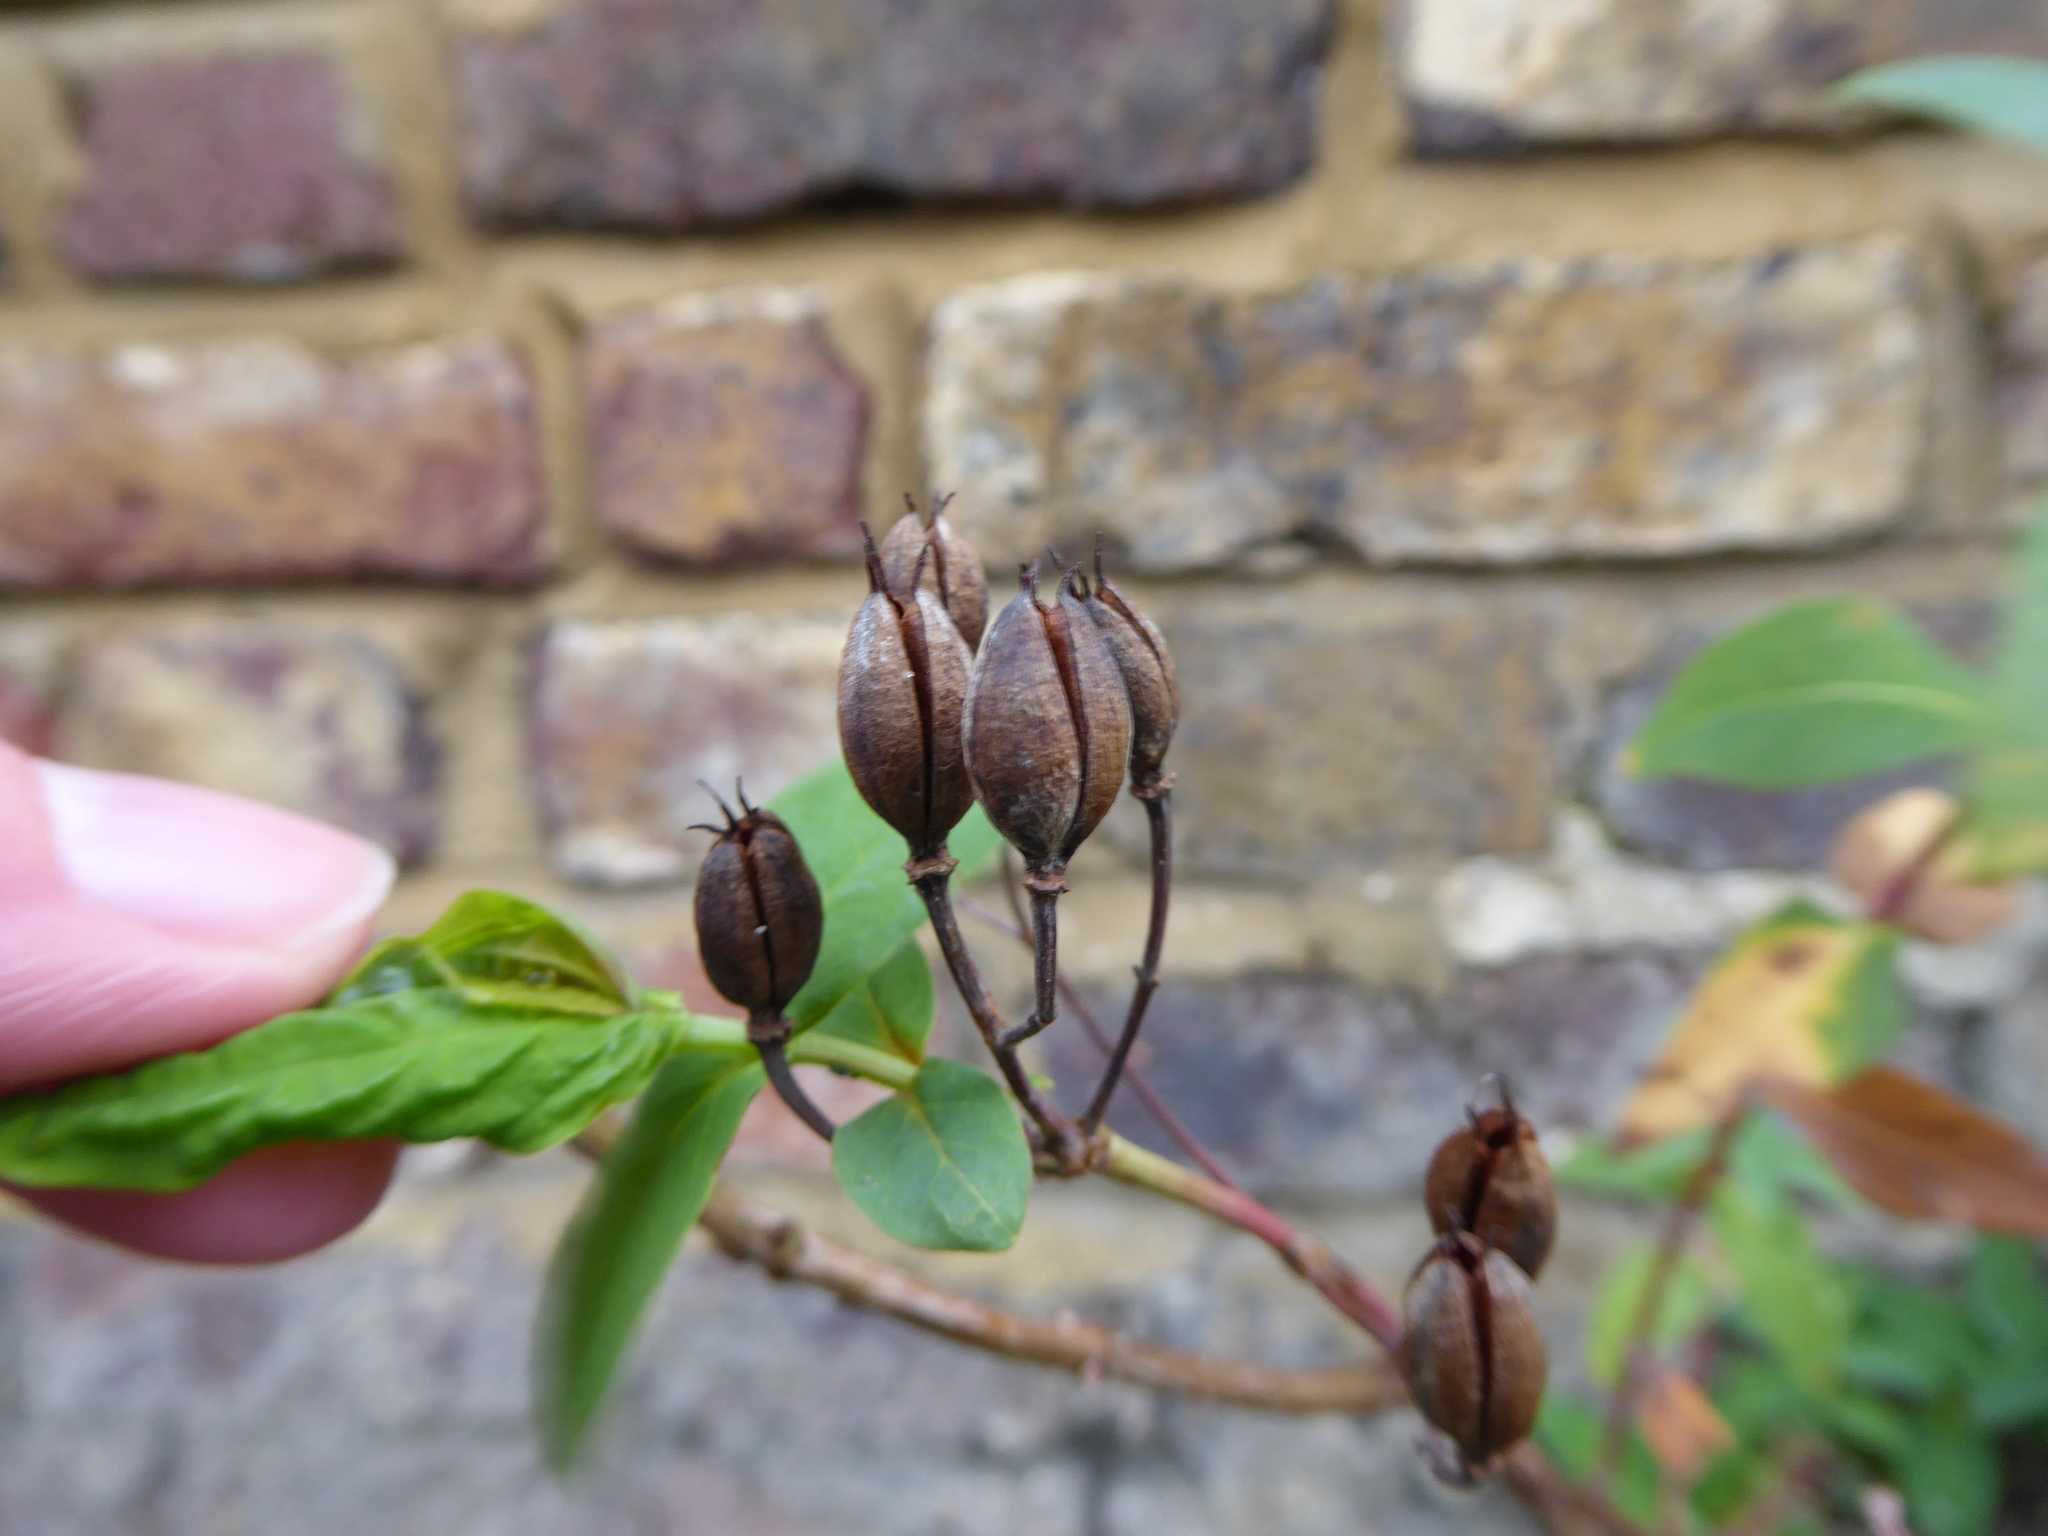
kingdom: Plantae
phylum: Tracheophyta
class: Magnoliopsida
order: Malpighiales
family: Hypericaceae
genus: Hypericum
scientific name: Hypericum hircinum
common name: Stinking tutsan
